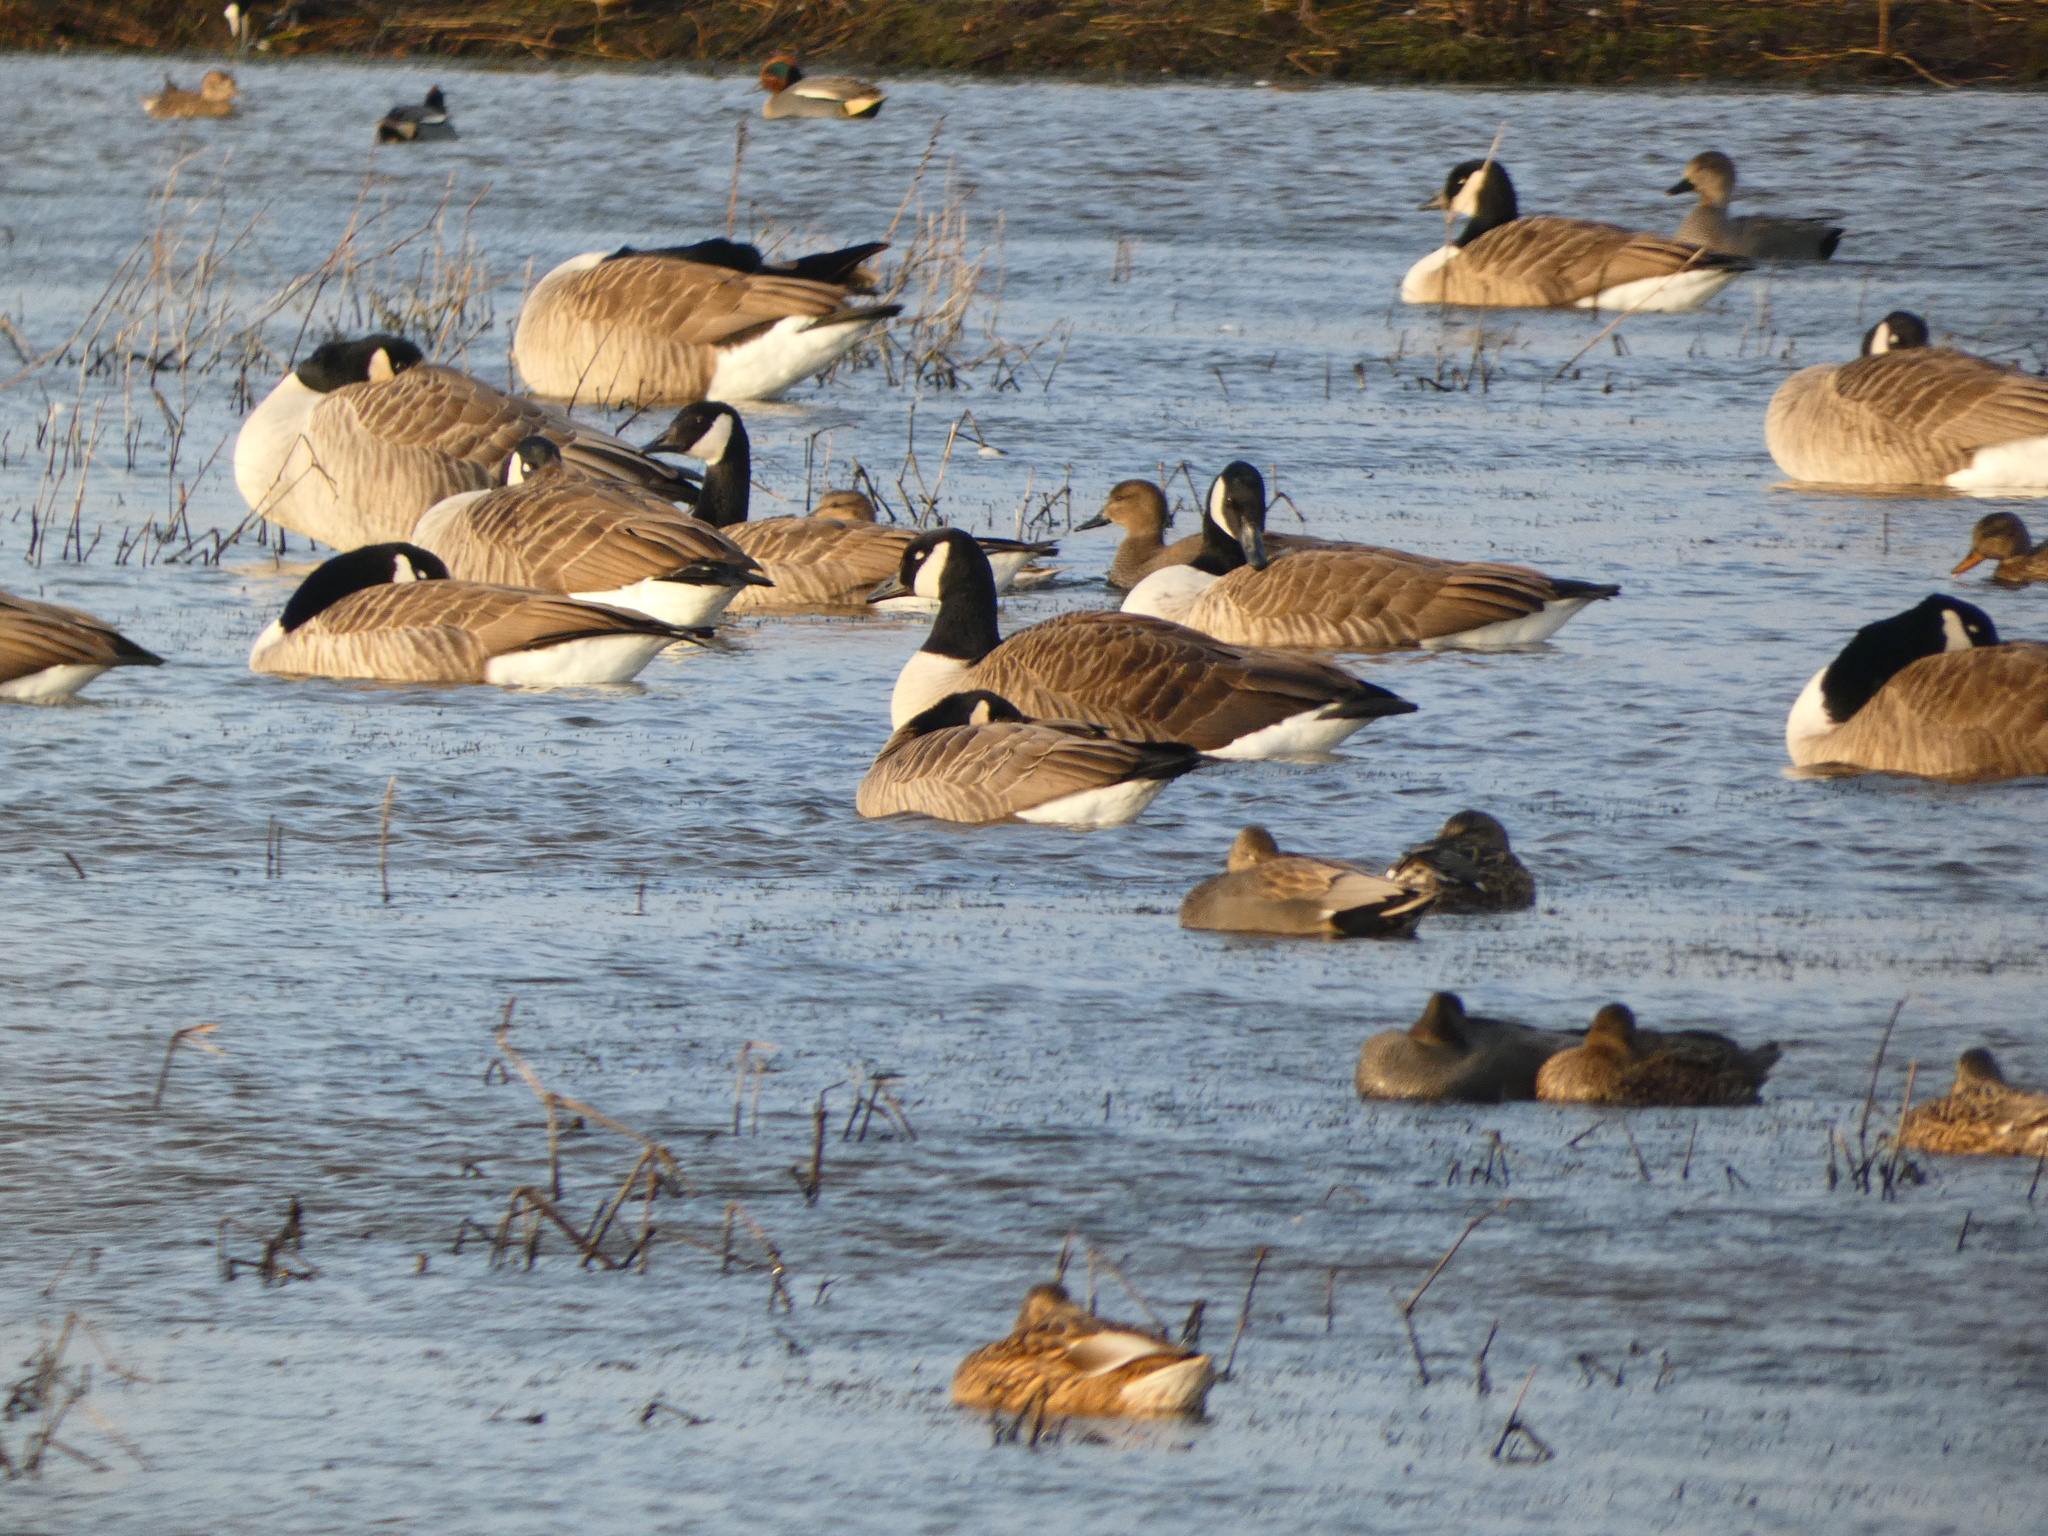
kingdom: Animalia
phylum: Chordata
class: Aves
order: Anseriformes
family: Anatidae
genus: Branta
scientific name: Branta hutchinsii
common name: Cackling goose
